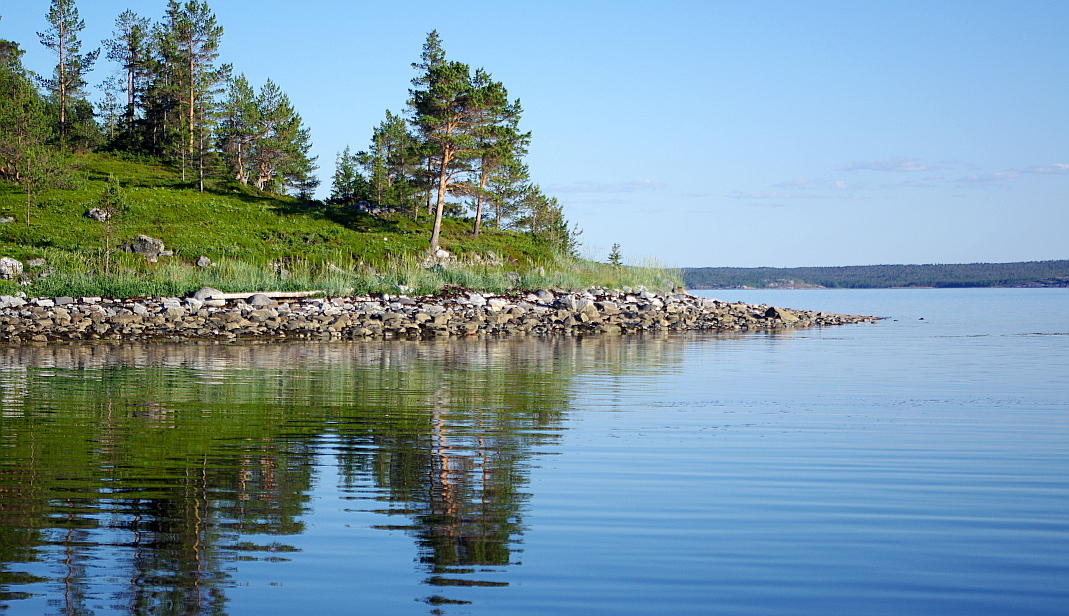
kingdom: Plantae
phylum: Tracheophyta
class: Pinopsida
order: Pinales
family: Pinaceae
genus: Pinus
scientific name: Pinus sylvestris
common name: Scots pine
